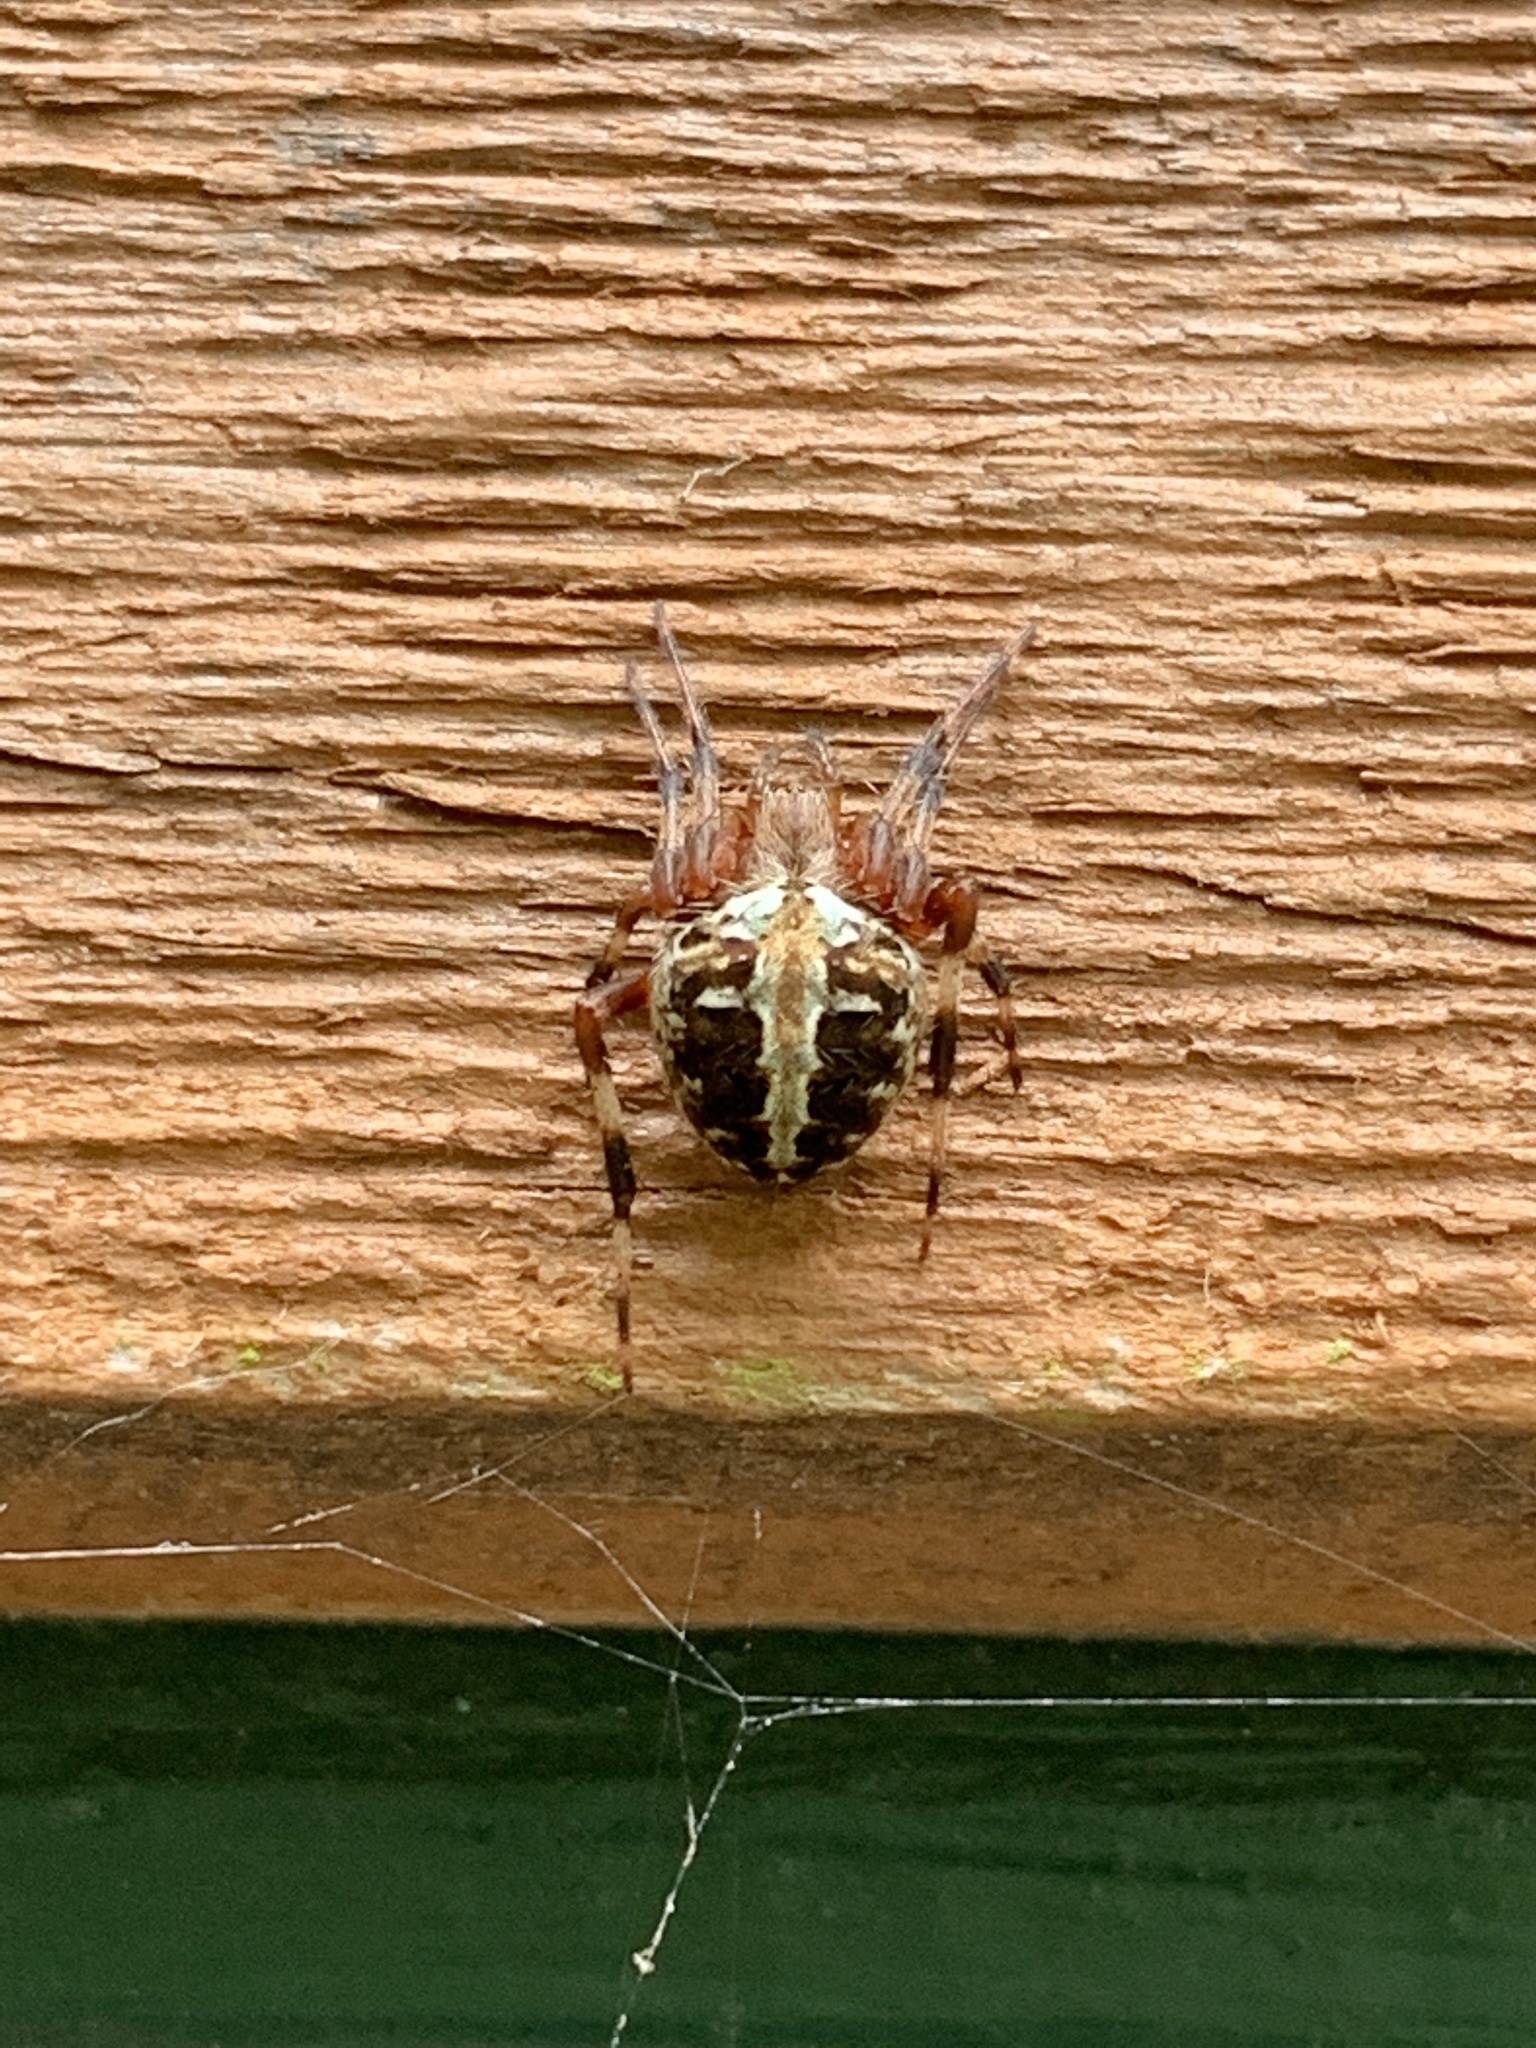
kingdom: Animalia
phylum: Arthropoda
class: Arachnida
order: Araneae
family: Araneidae
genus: Neoscona
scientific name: Neoscona domiciliorum
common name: Red-femured spotted orbweaver
